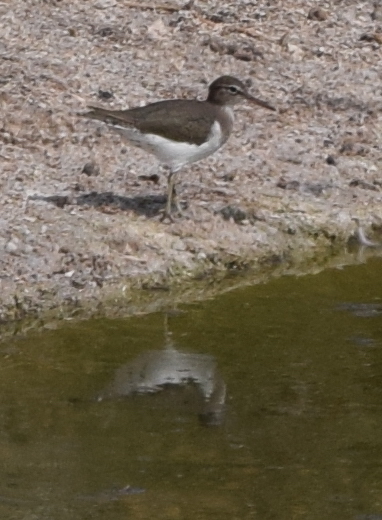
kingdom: Animalia
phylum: Chordata
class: Aves
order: Charadriiformes
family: Scolopacidae
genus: Actitis
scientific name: Actitis macularius
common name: Spotted sandpiper
